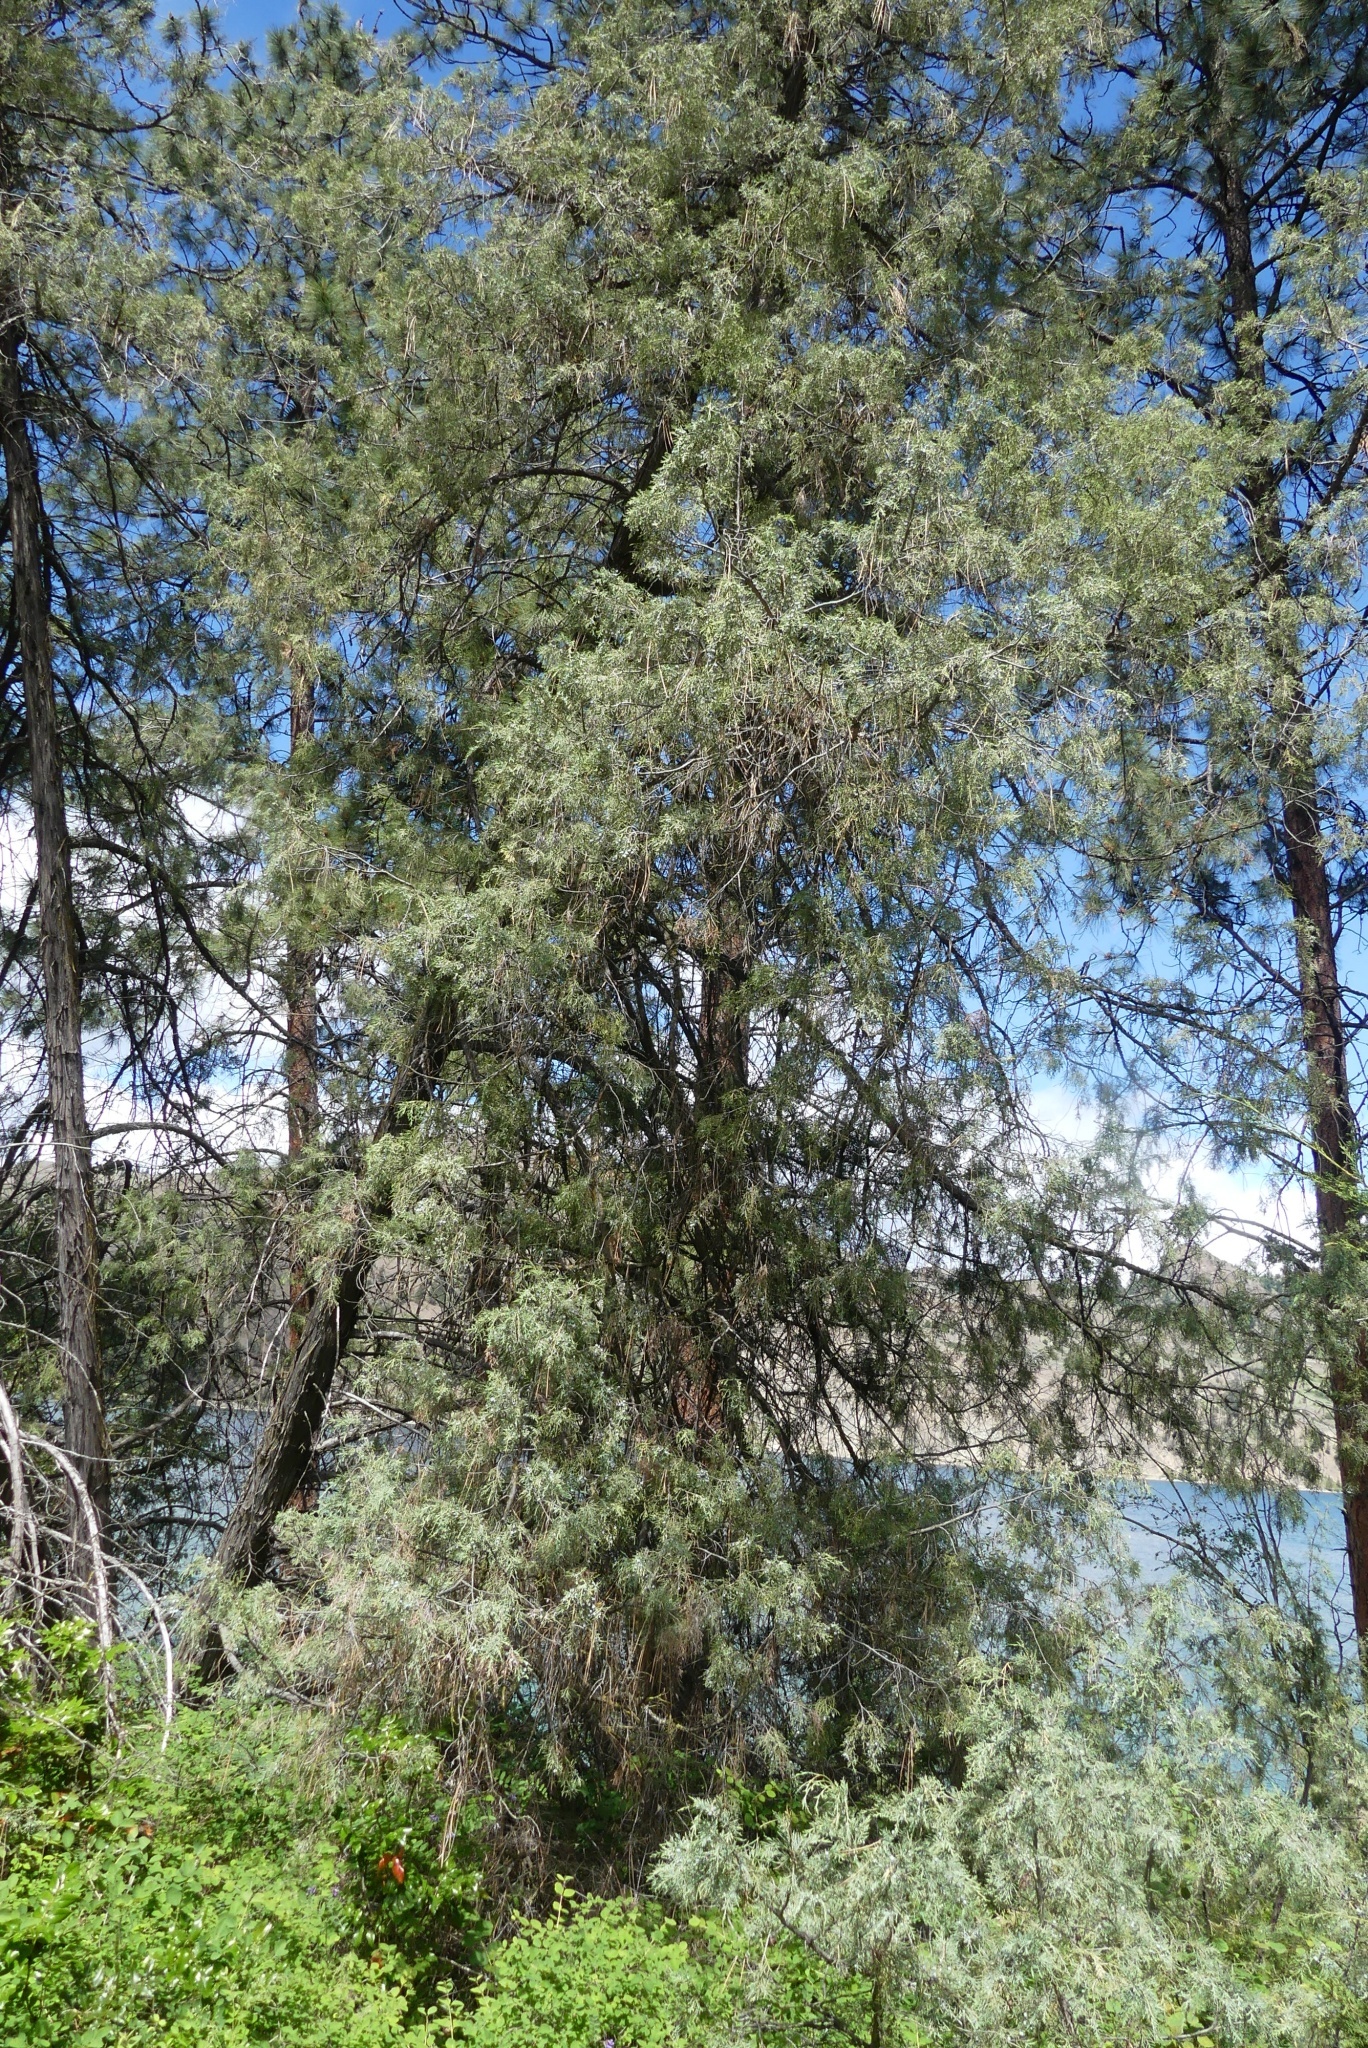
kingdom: Plantae
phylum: Tracheophyta
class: Pinopsida
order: Pinales
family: Cupressaceae
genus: Juniperus
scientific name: Juniperus scopulorum
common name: Rocky mountain juniper
